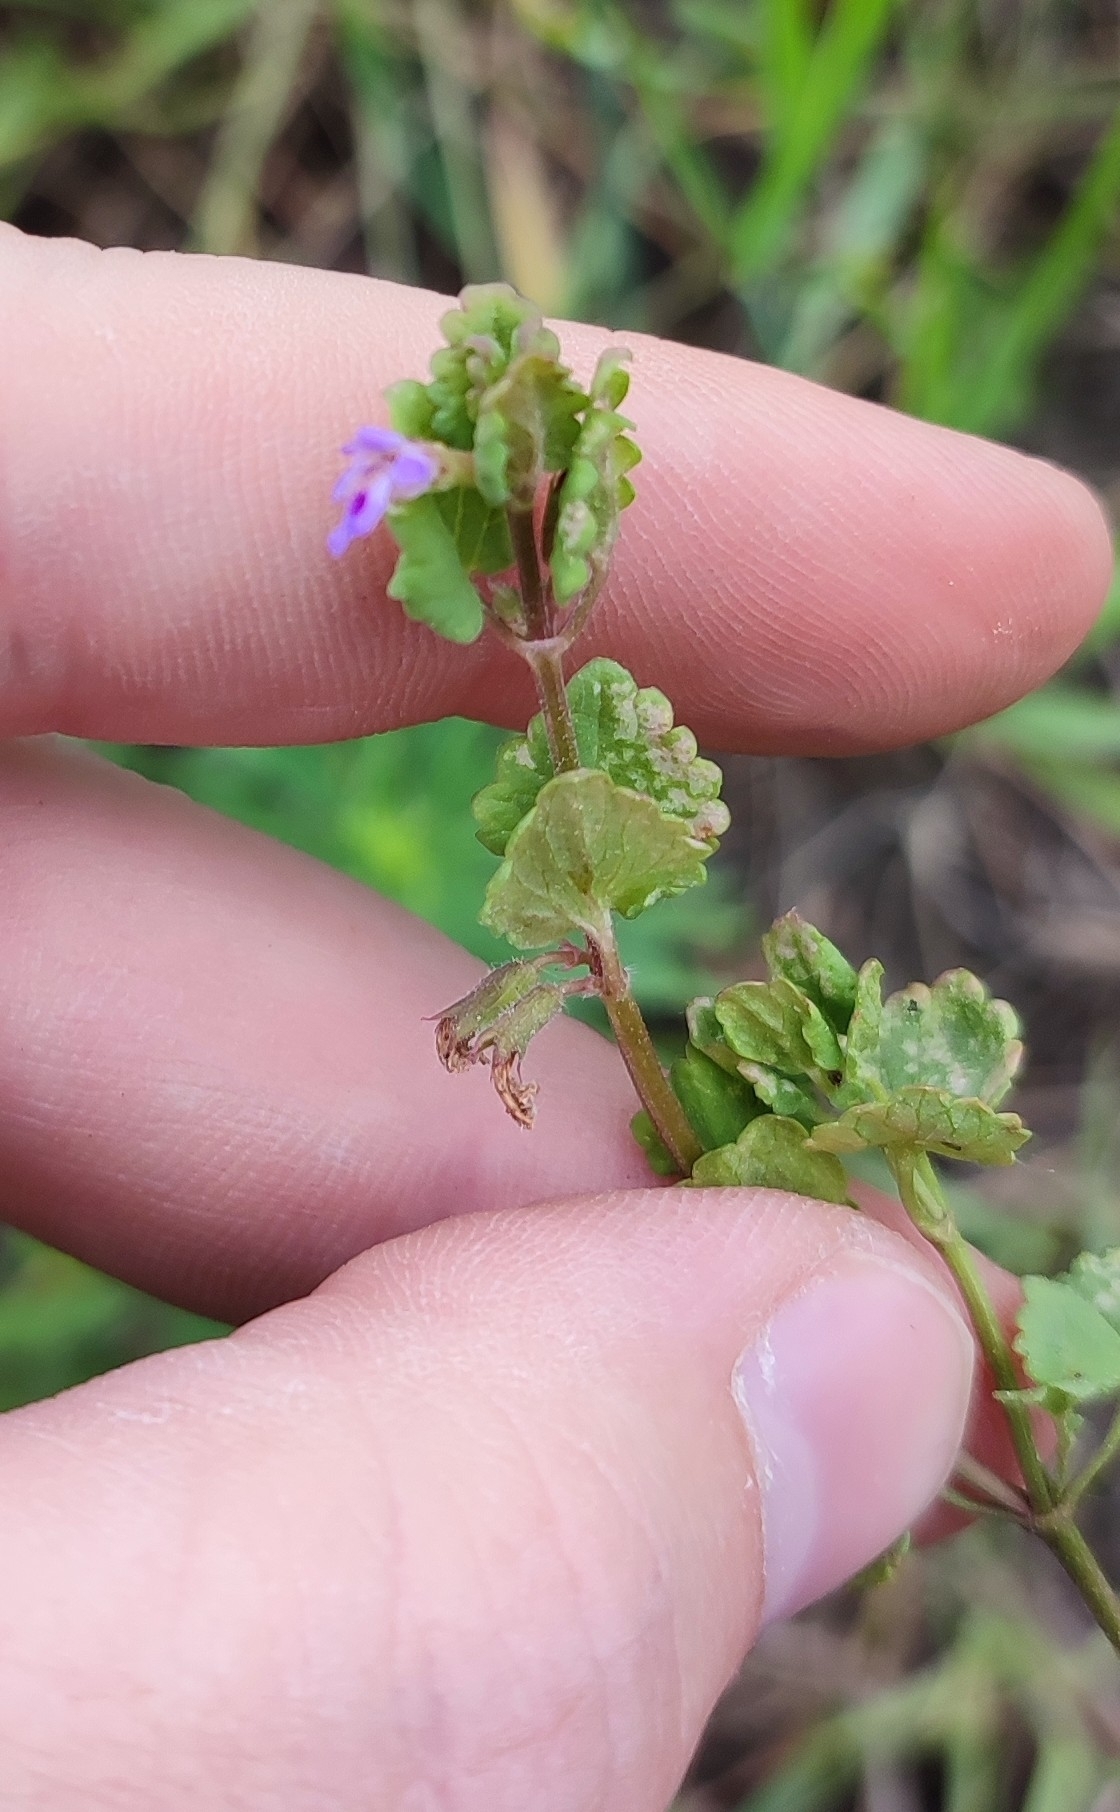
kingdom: Plantae
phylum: Tracheophyta
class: Magnoliopsida
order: Lamiales
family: Lamiaceae
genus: Glechoma
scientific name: Glechoma hederacea
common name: Ground ivy
